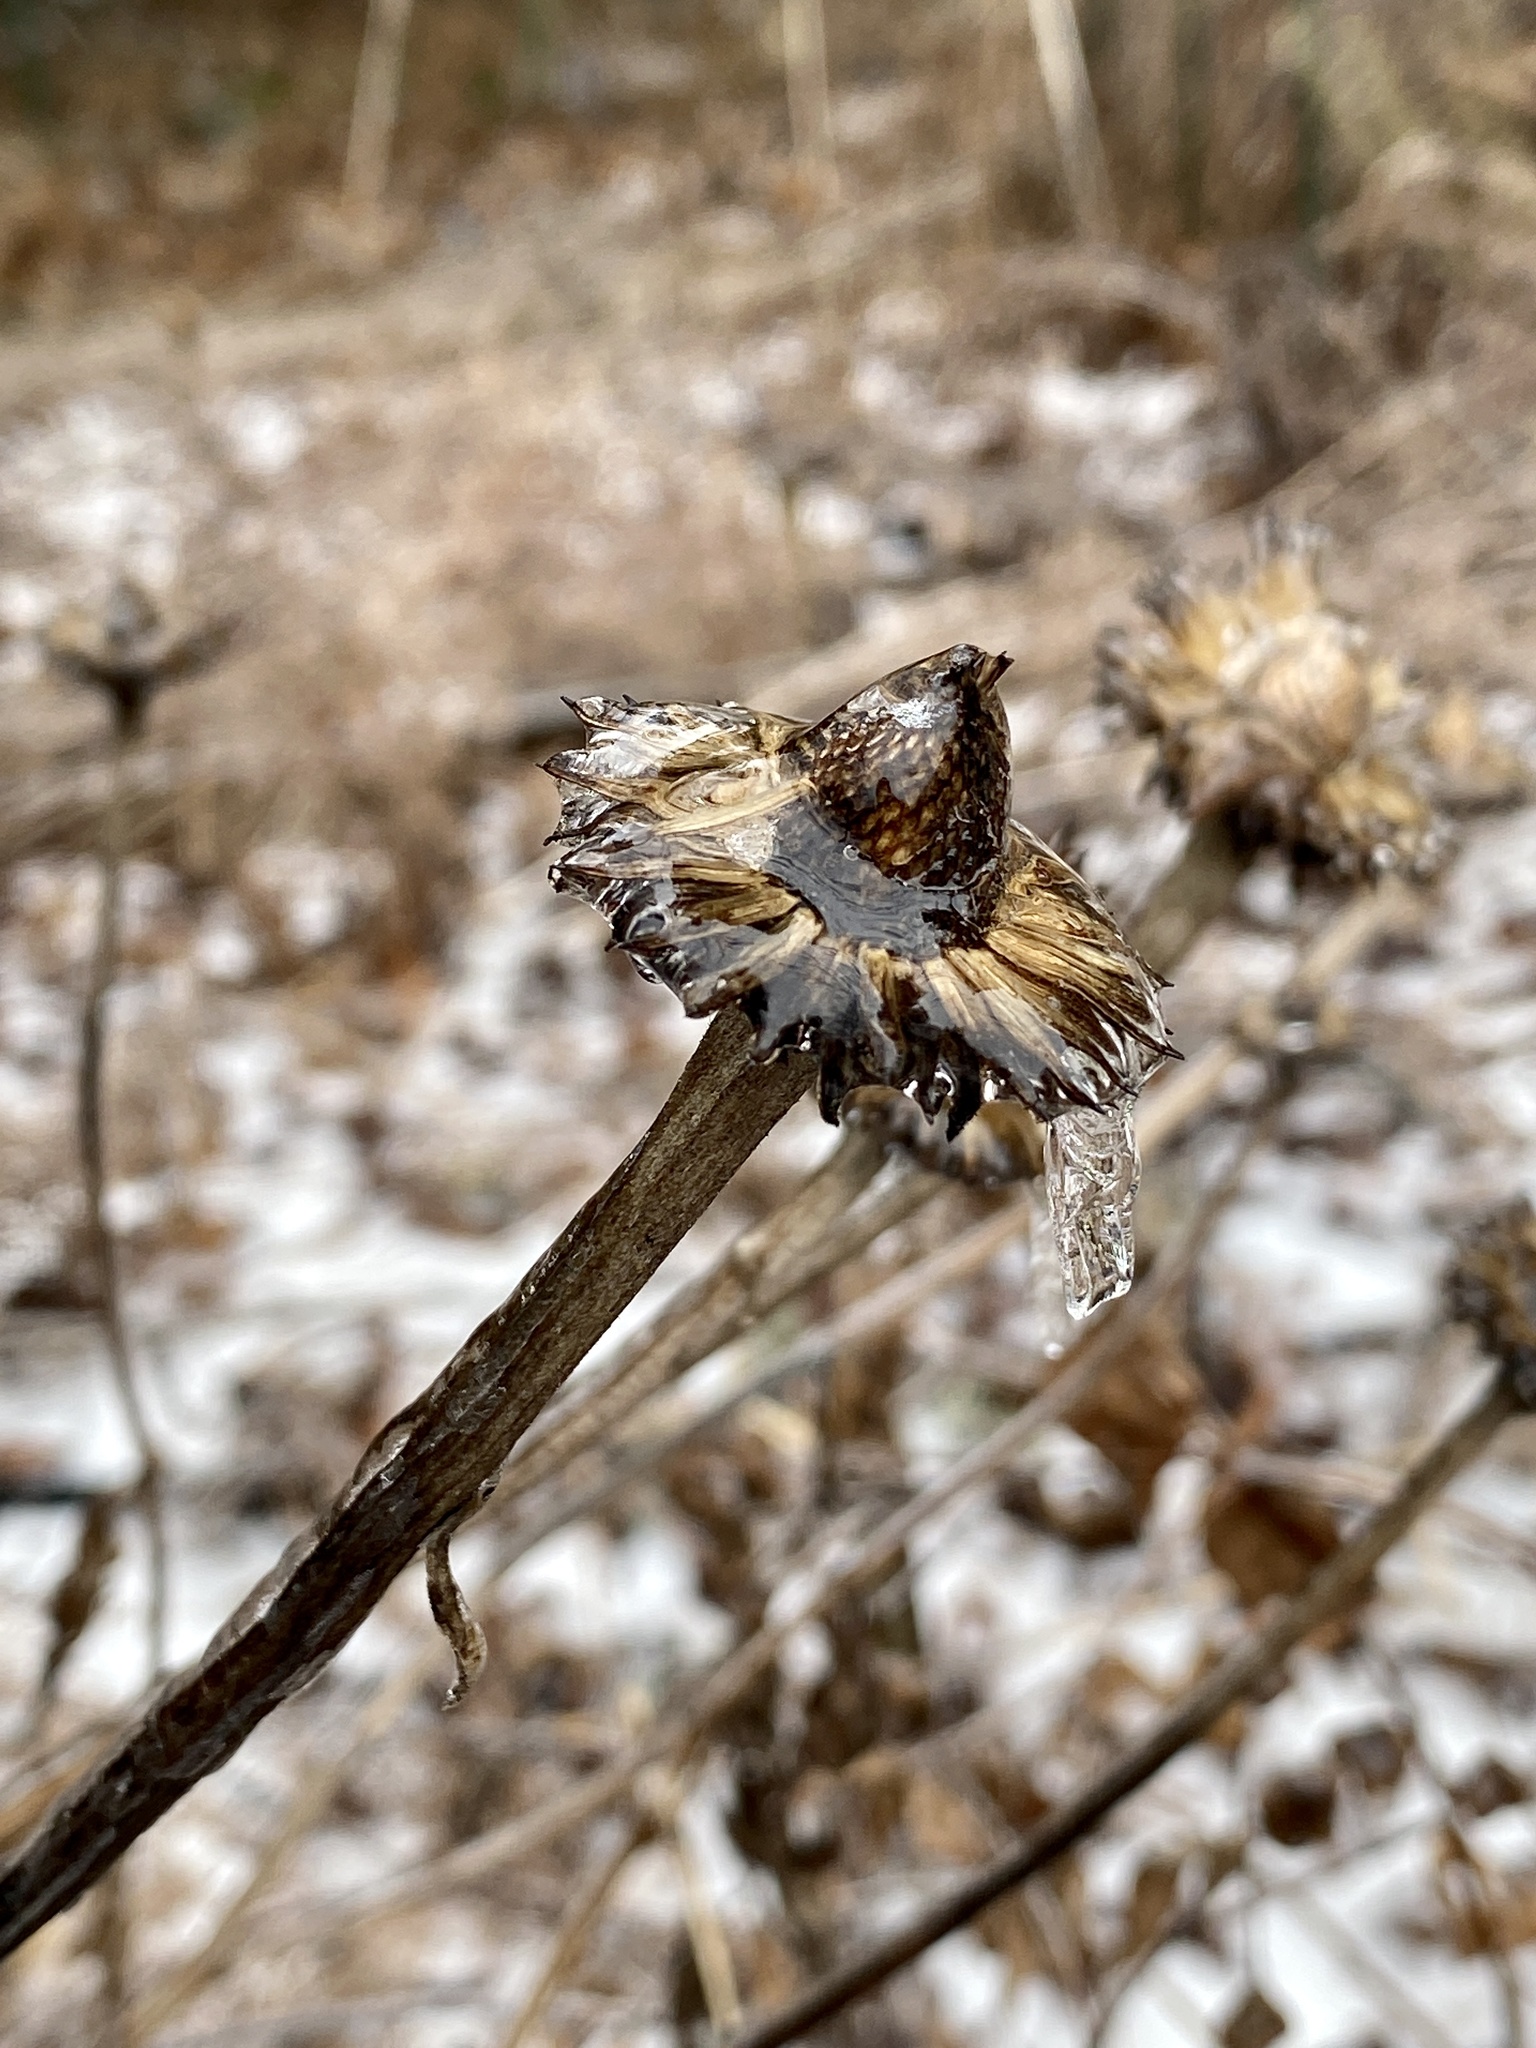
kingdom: Plantae
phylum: Tracheophyta
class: Magnoliopsida
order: Asterales
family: Asteraceae
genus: Echinacea
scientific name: Echinacea purpurea
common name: Broad-leaved purple coneflower
